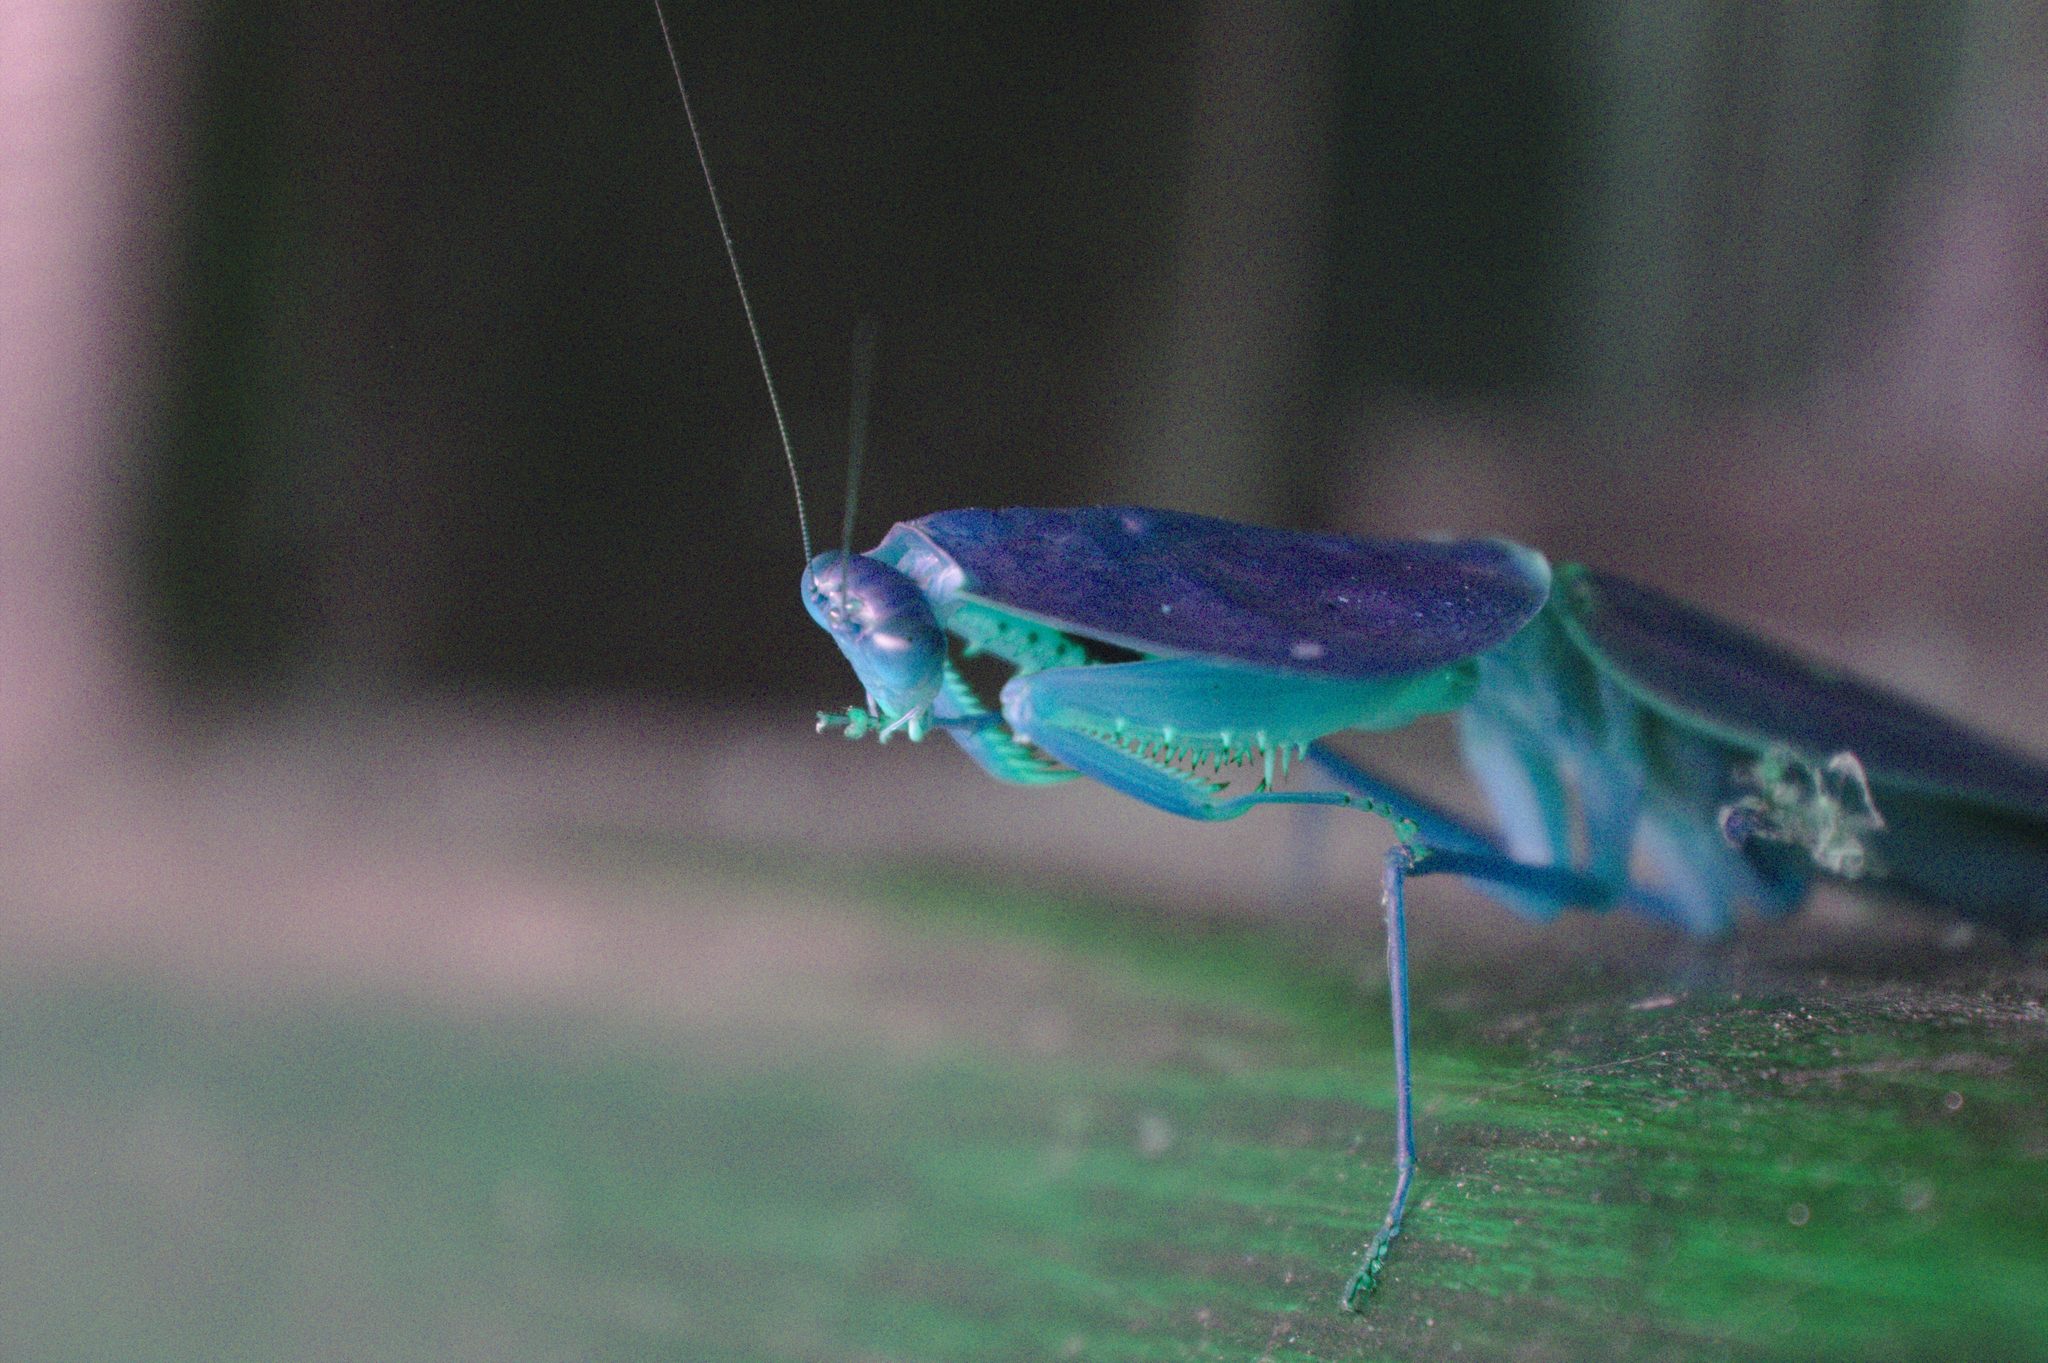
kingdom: Animalia
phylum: Arthropoda
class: Insecta
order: Mantodea
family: Mantidae
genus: Choeradodis
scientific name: Choeradodis rhombicollis
